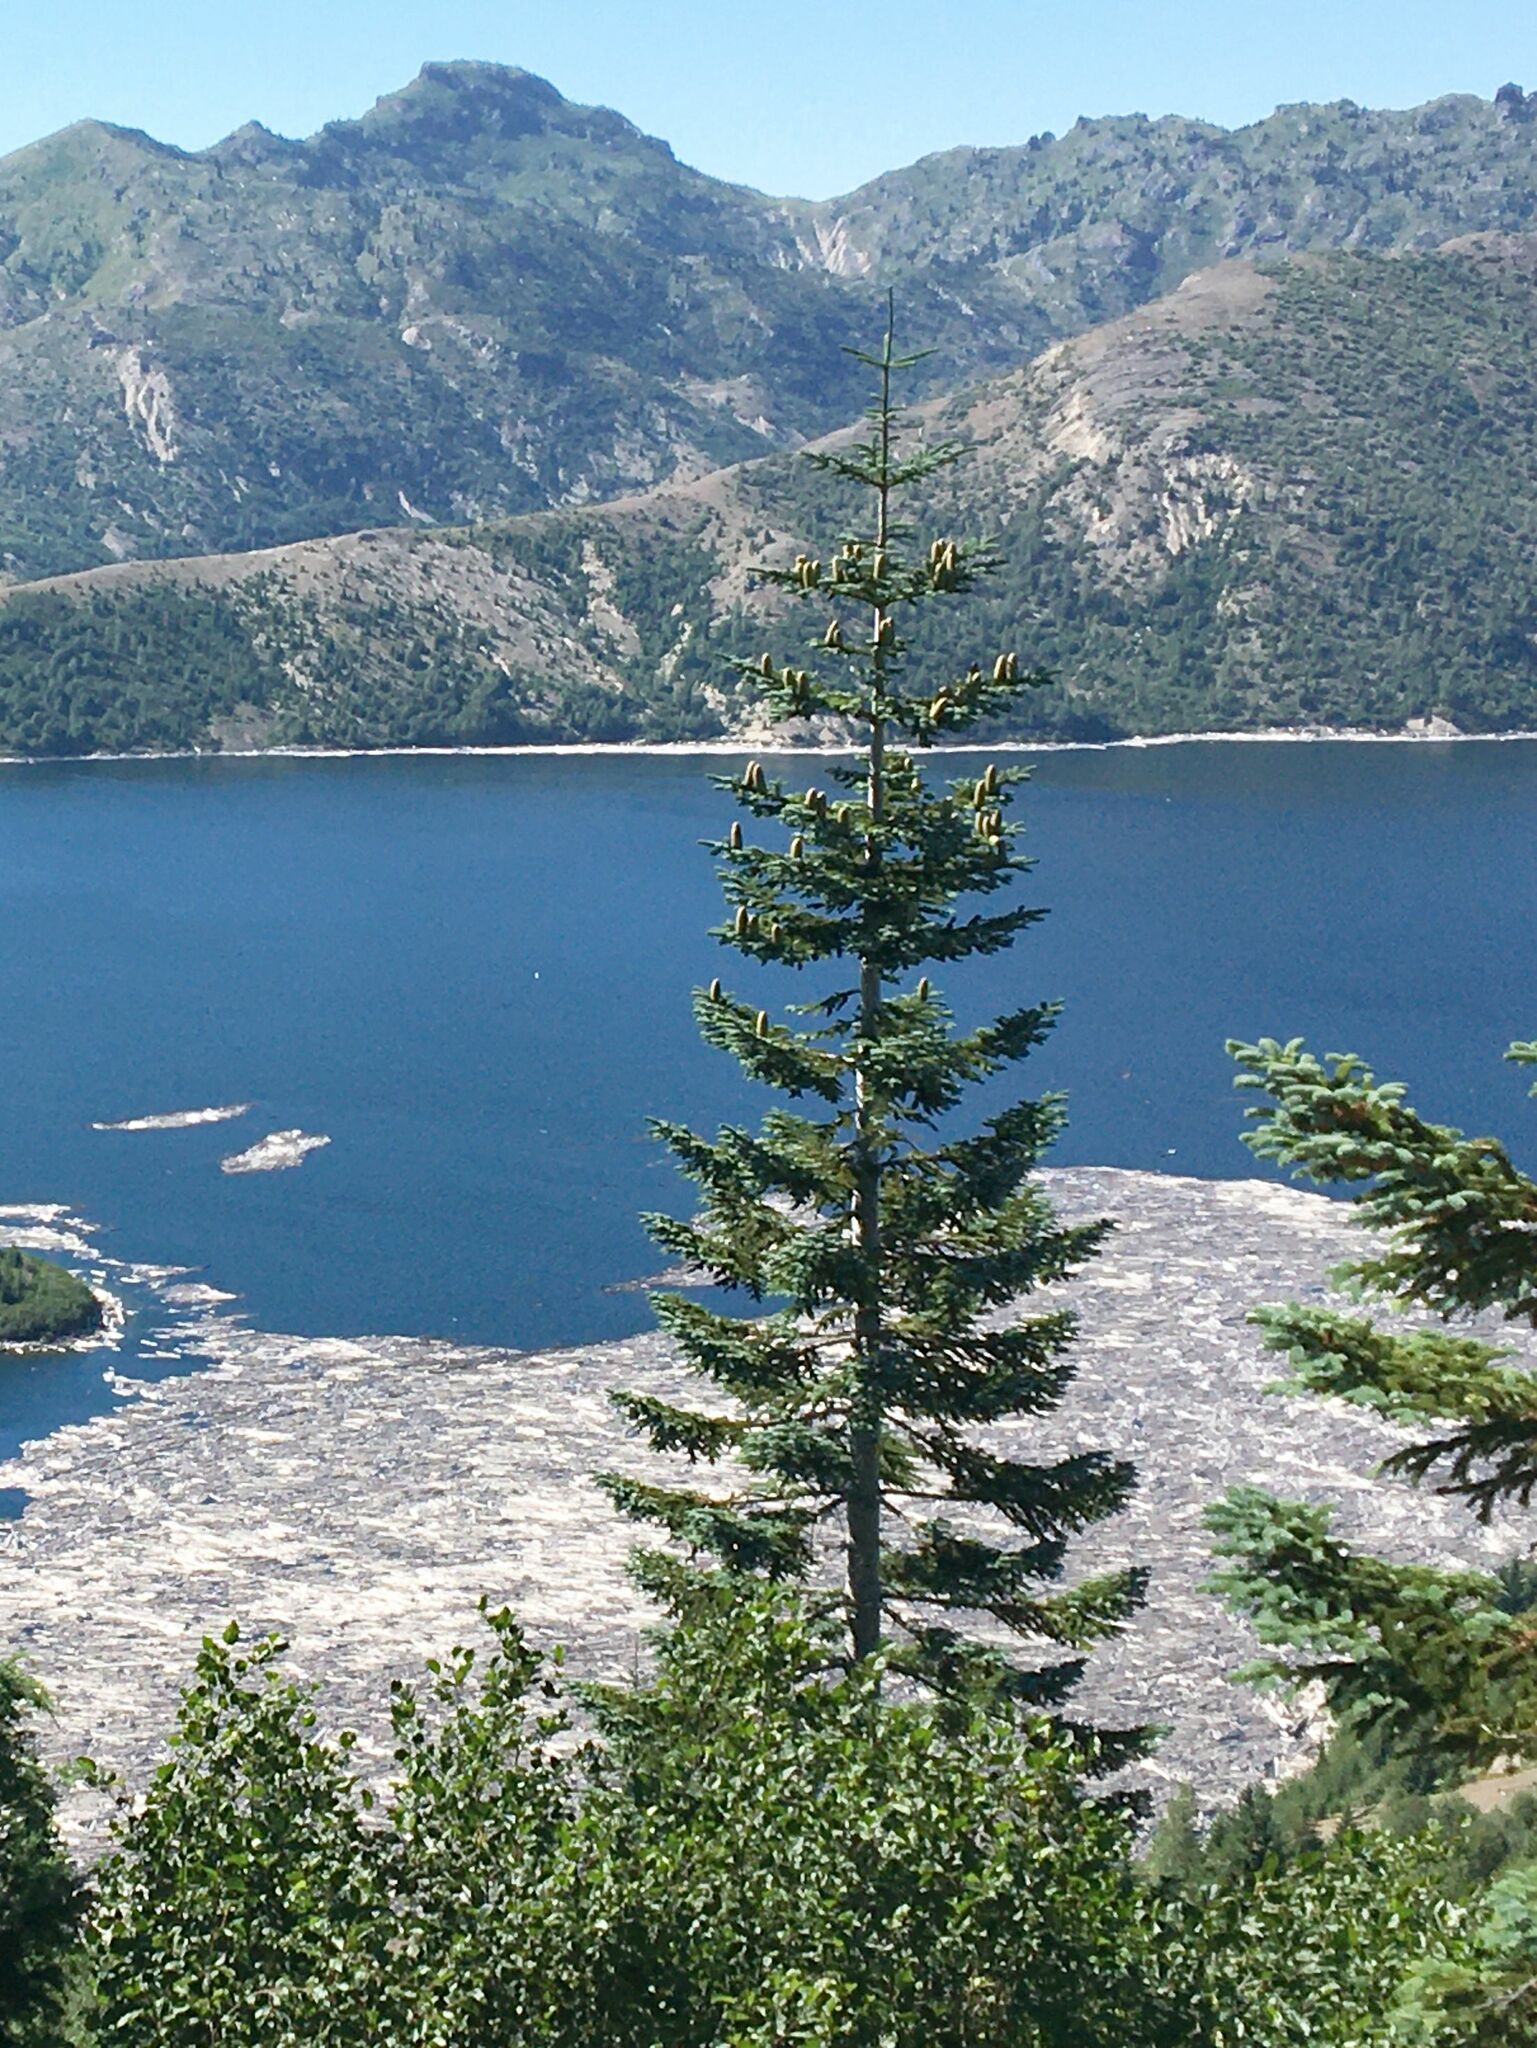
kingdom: Plantae
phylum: Tracheophyta
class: Pinopsida
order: Pinales
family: Pinaceae
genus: Abies
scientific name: Abies procera
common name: Noble fir
